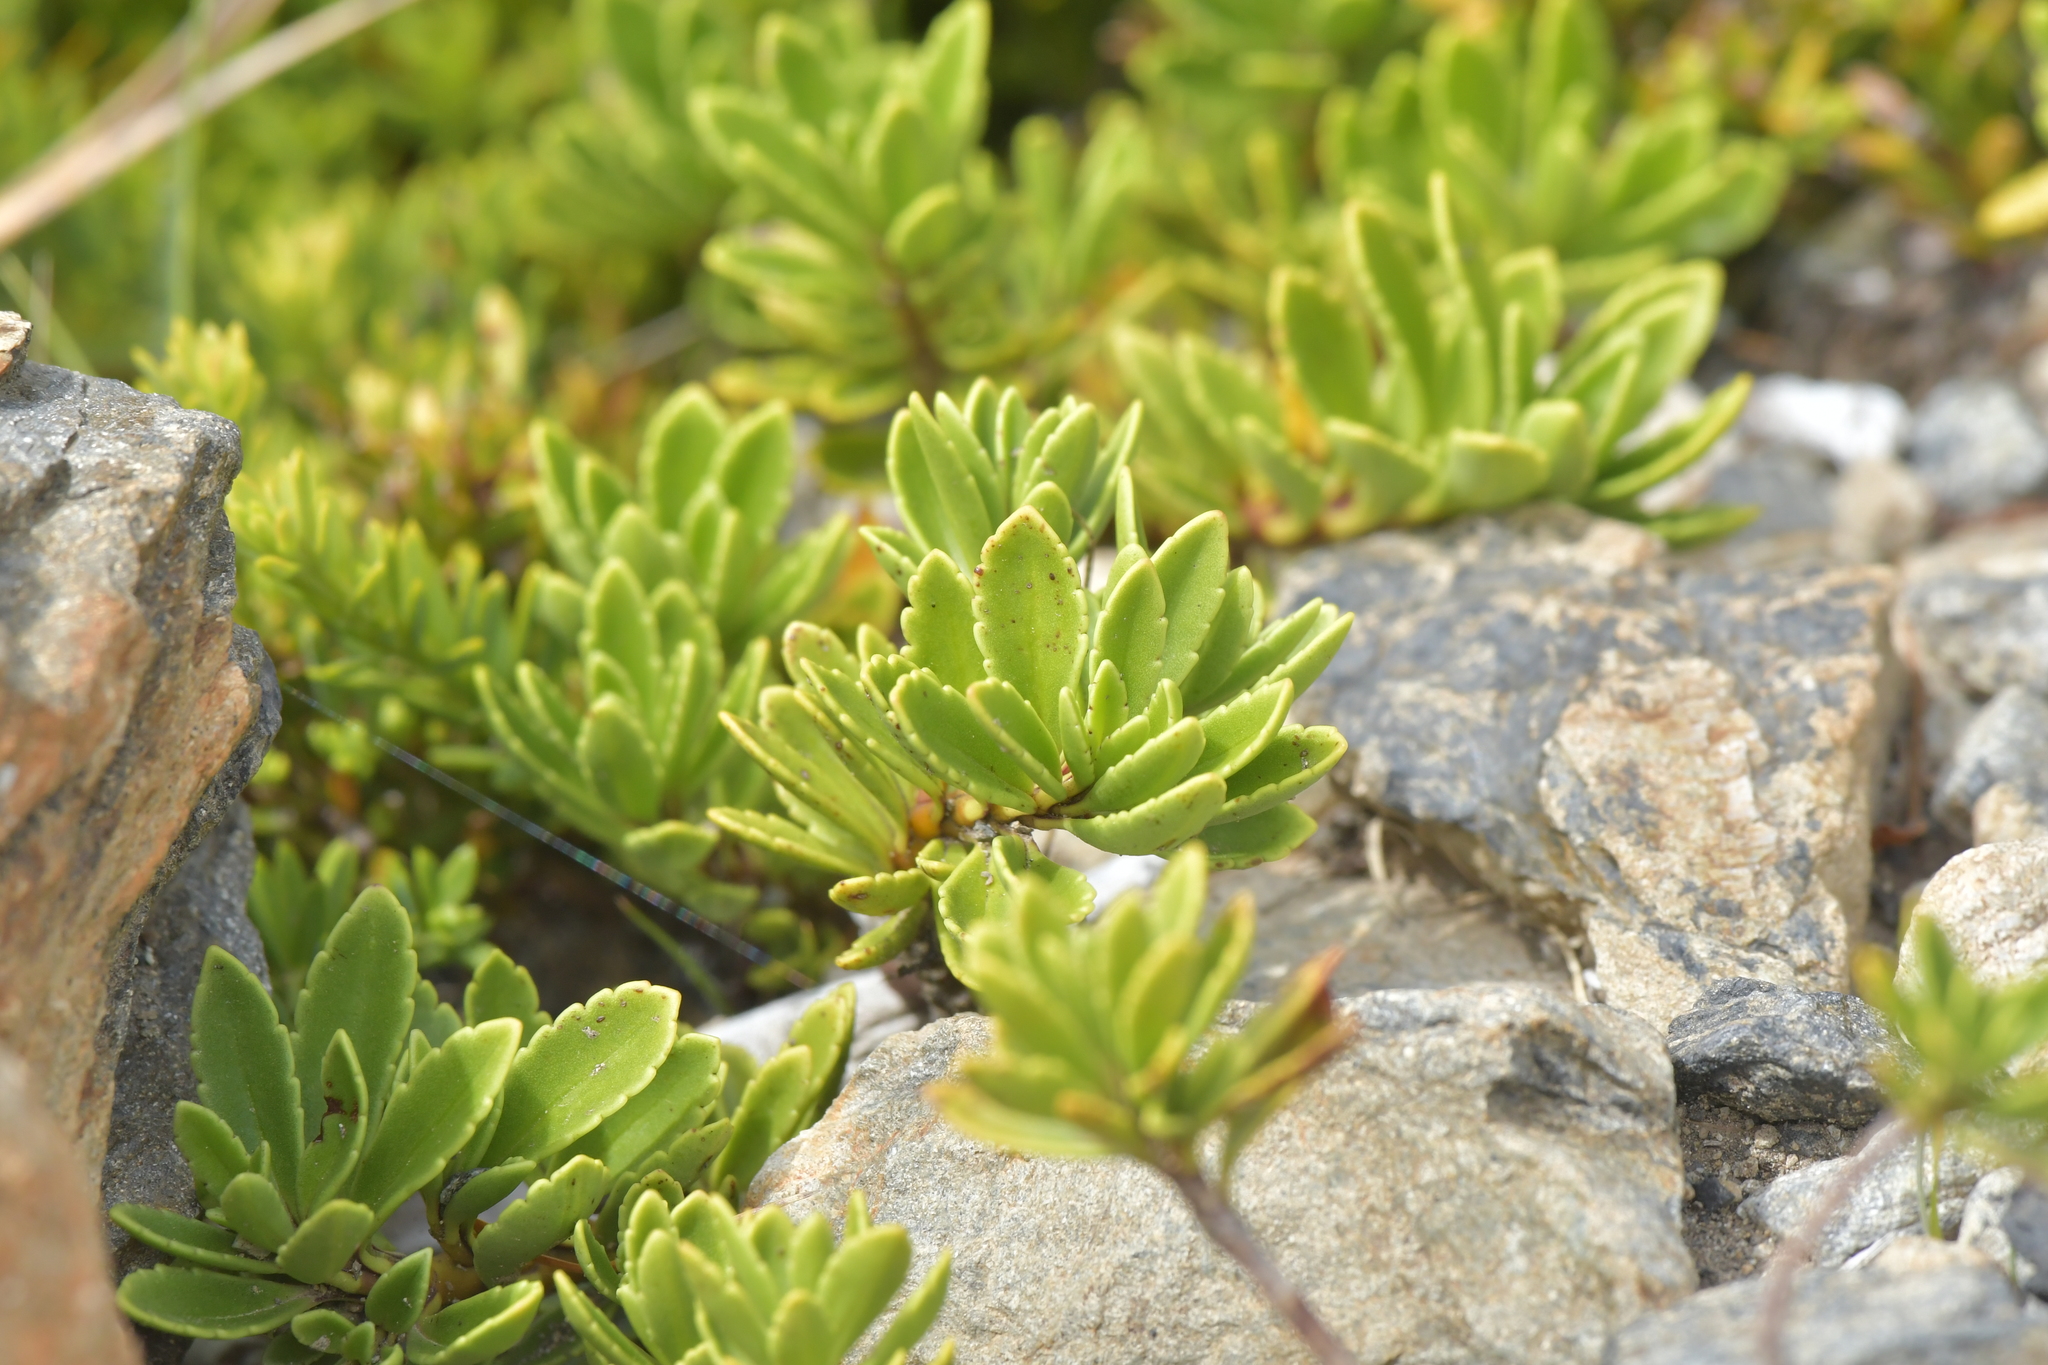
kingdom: Plantae
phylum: Tracheophyta
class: Magnoliopsida
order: Lamiales
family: Plantaginaceae
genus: Veronica
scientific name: Veronica macrantha
